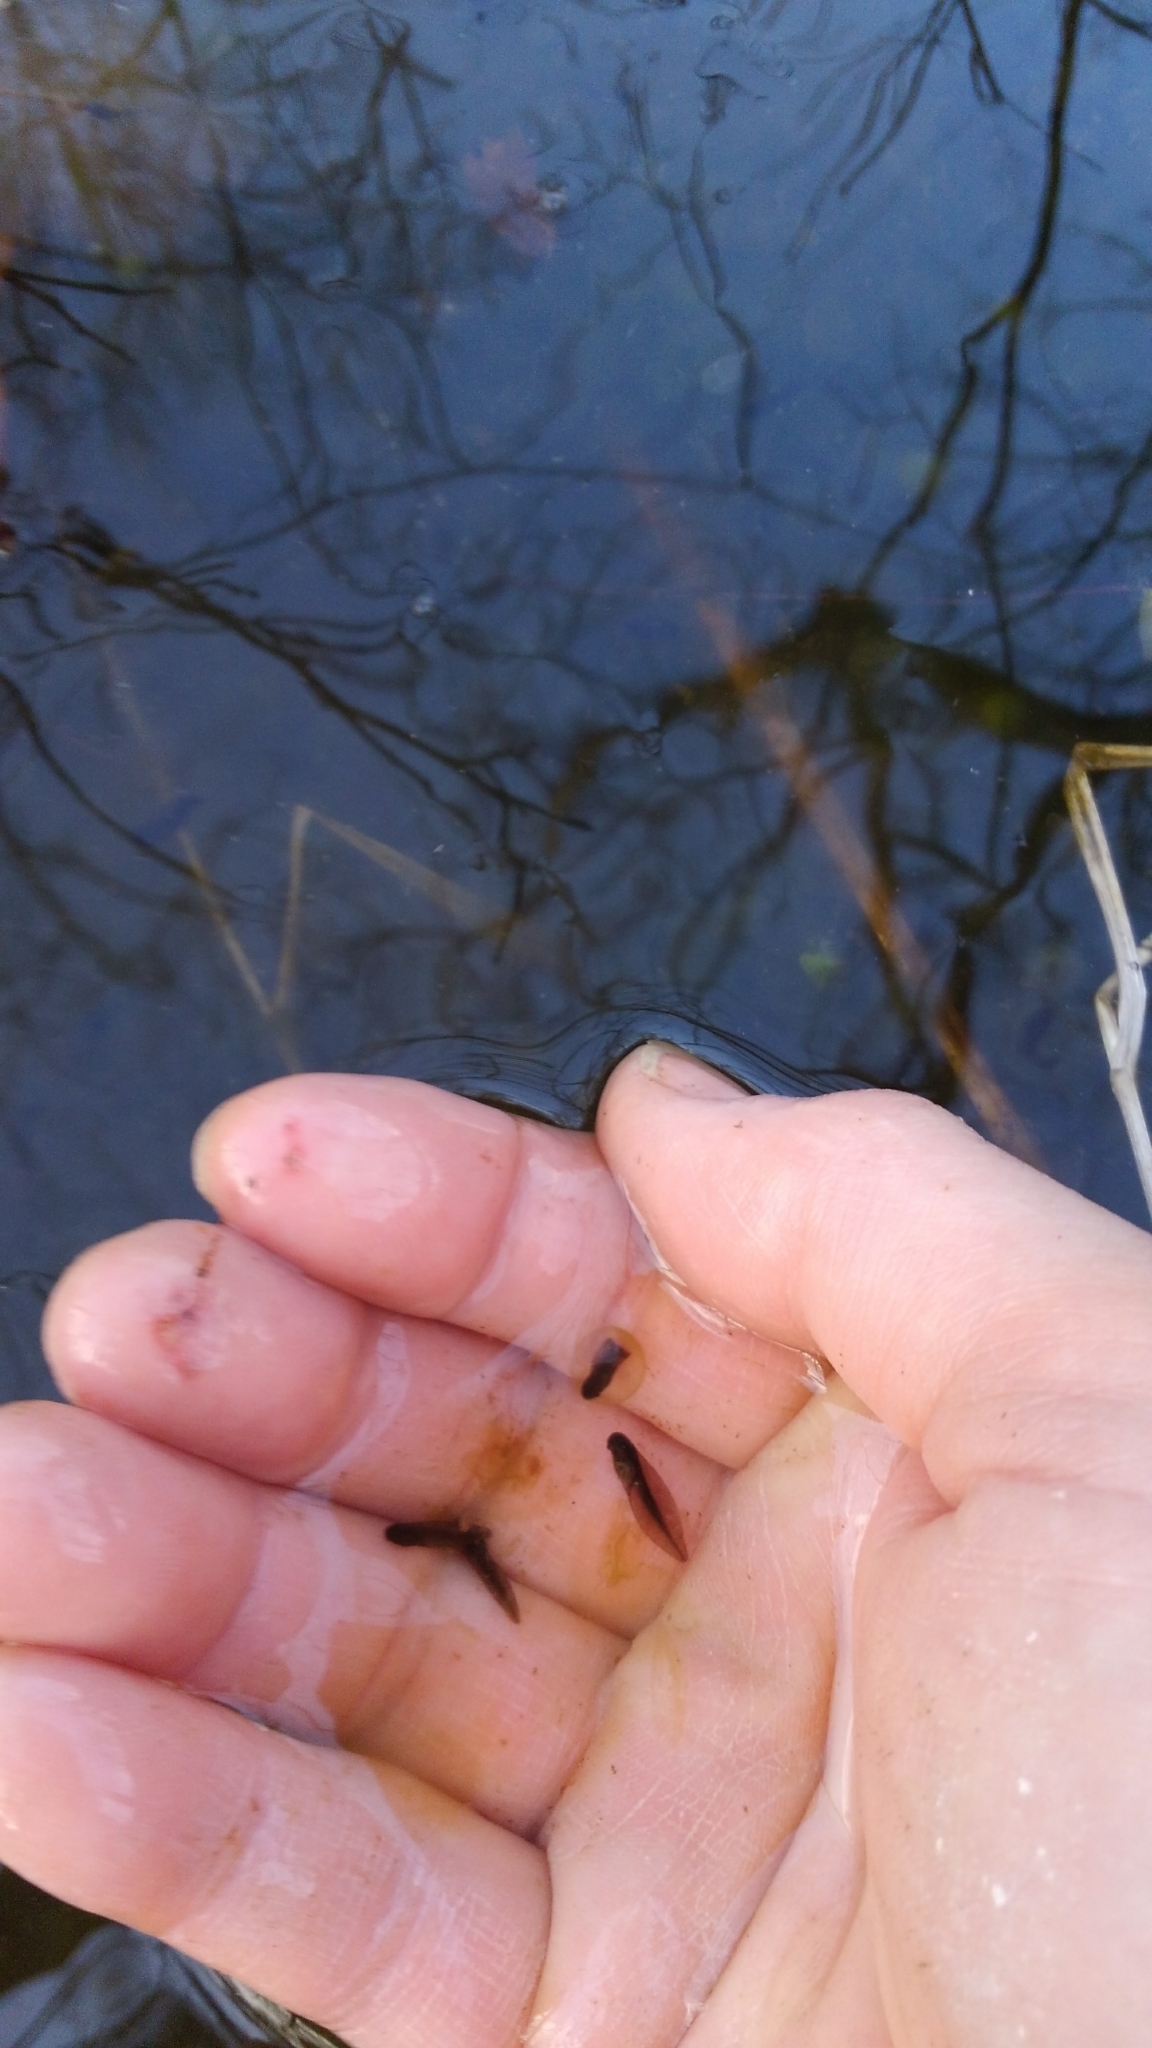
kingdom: Animalia
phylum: Chordata
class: Amphibia
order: Anura
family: Ranidae
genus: Lithobates
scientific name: Lithobates sylvaticus
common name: Wood frog
